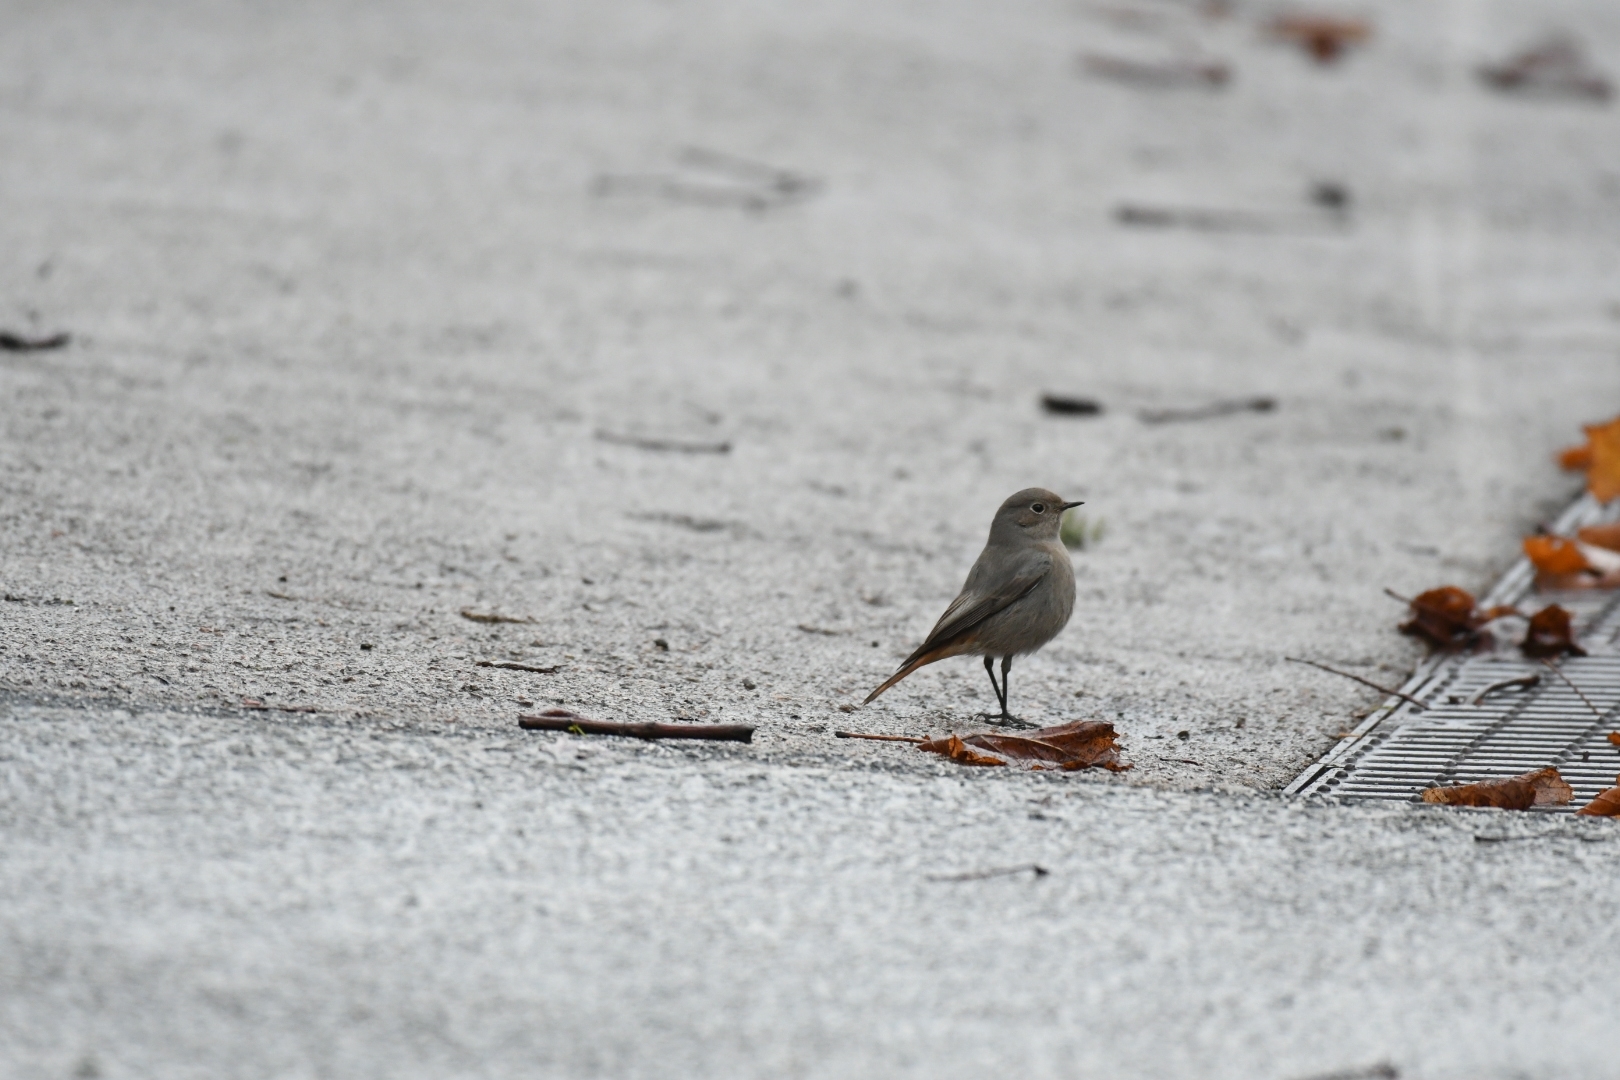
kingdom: Animalia
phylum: Chordata
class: Aves
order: Passeriformes
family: Muscicapidae
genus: Phoenicurus
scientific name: Phoenicurus ochruros
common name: Black redstart
